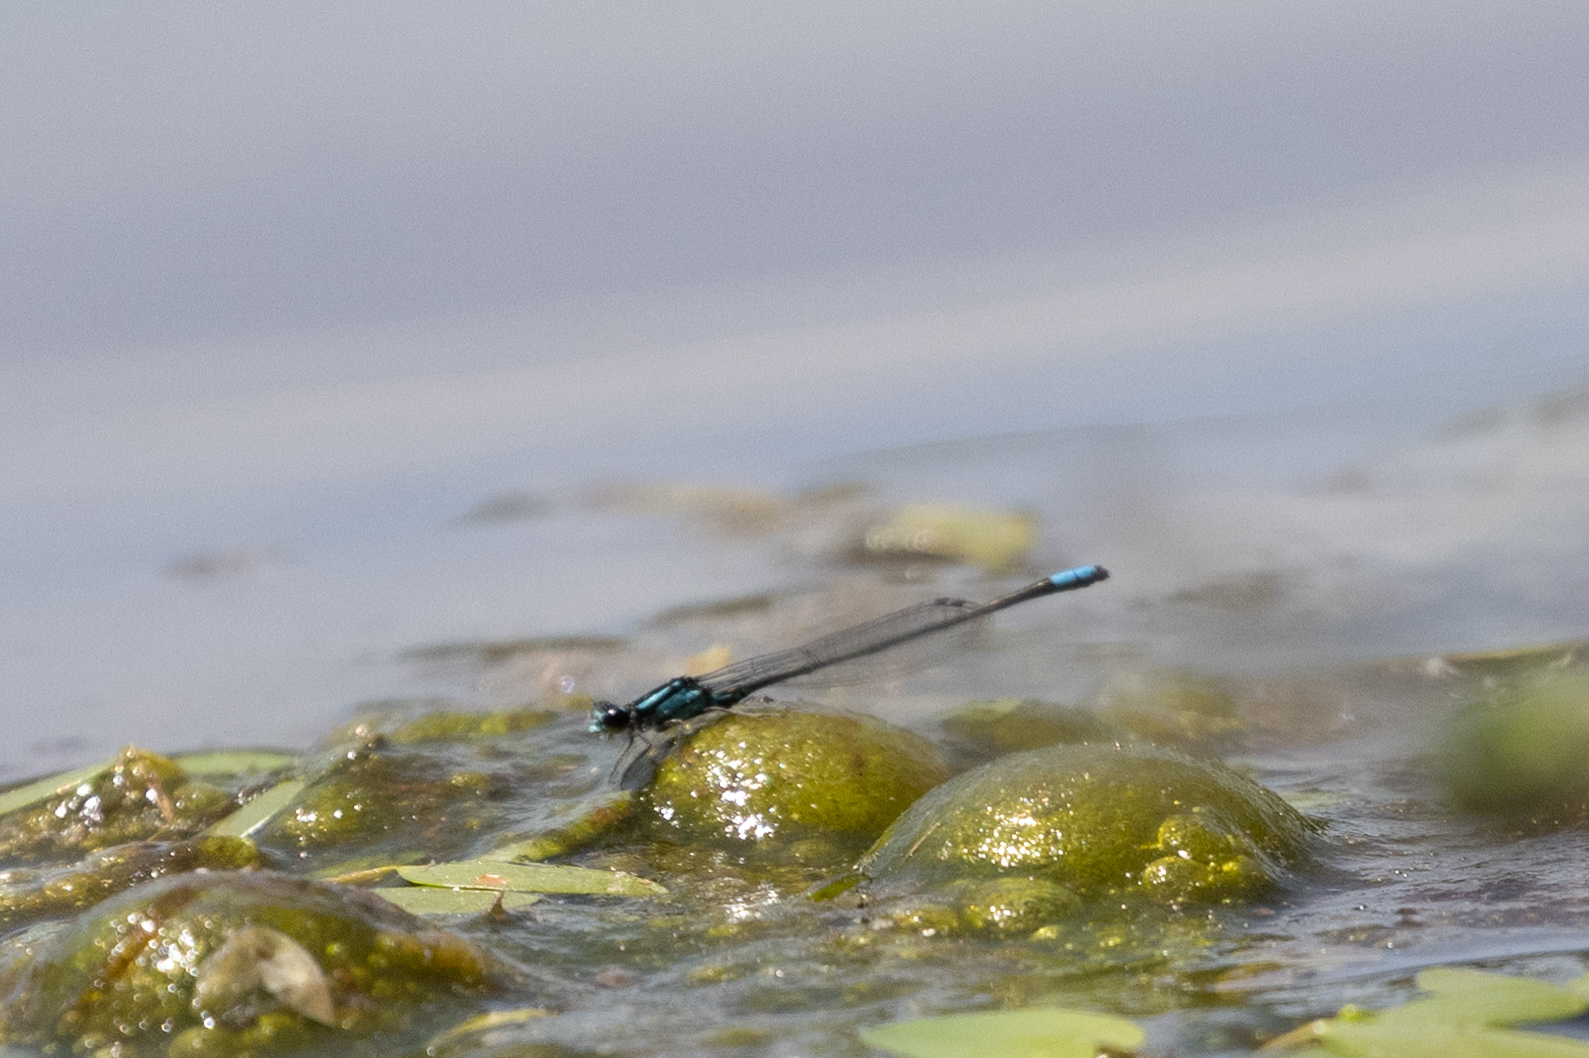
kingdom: Animalia
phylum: Arthropoda
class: Insecta
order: Odonata
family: Coenagrionidae
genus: Enallagma
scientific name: Enallagma geminatum
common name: Skimming bluet
